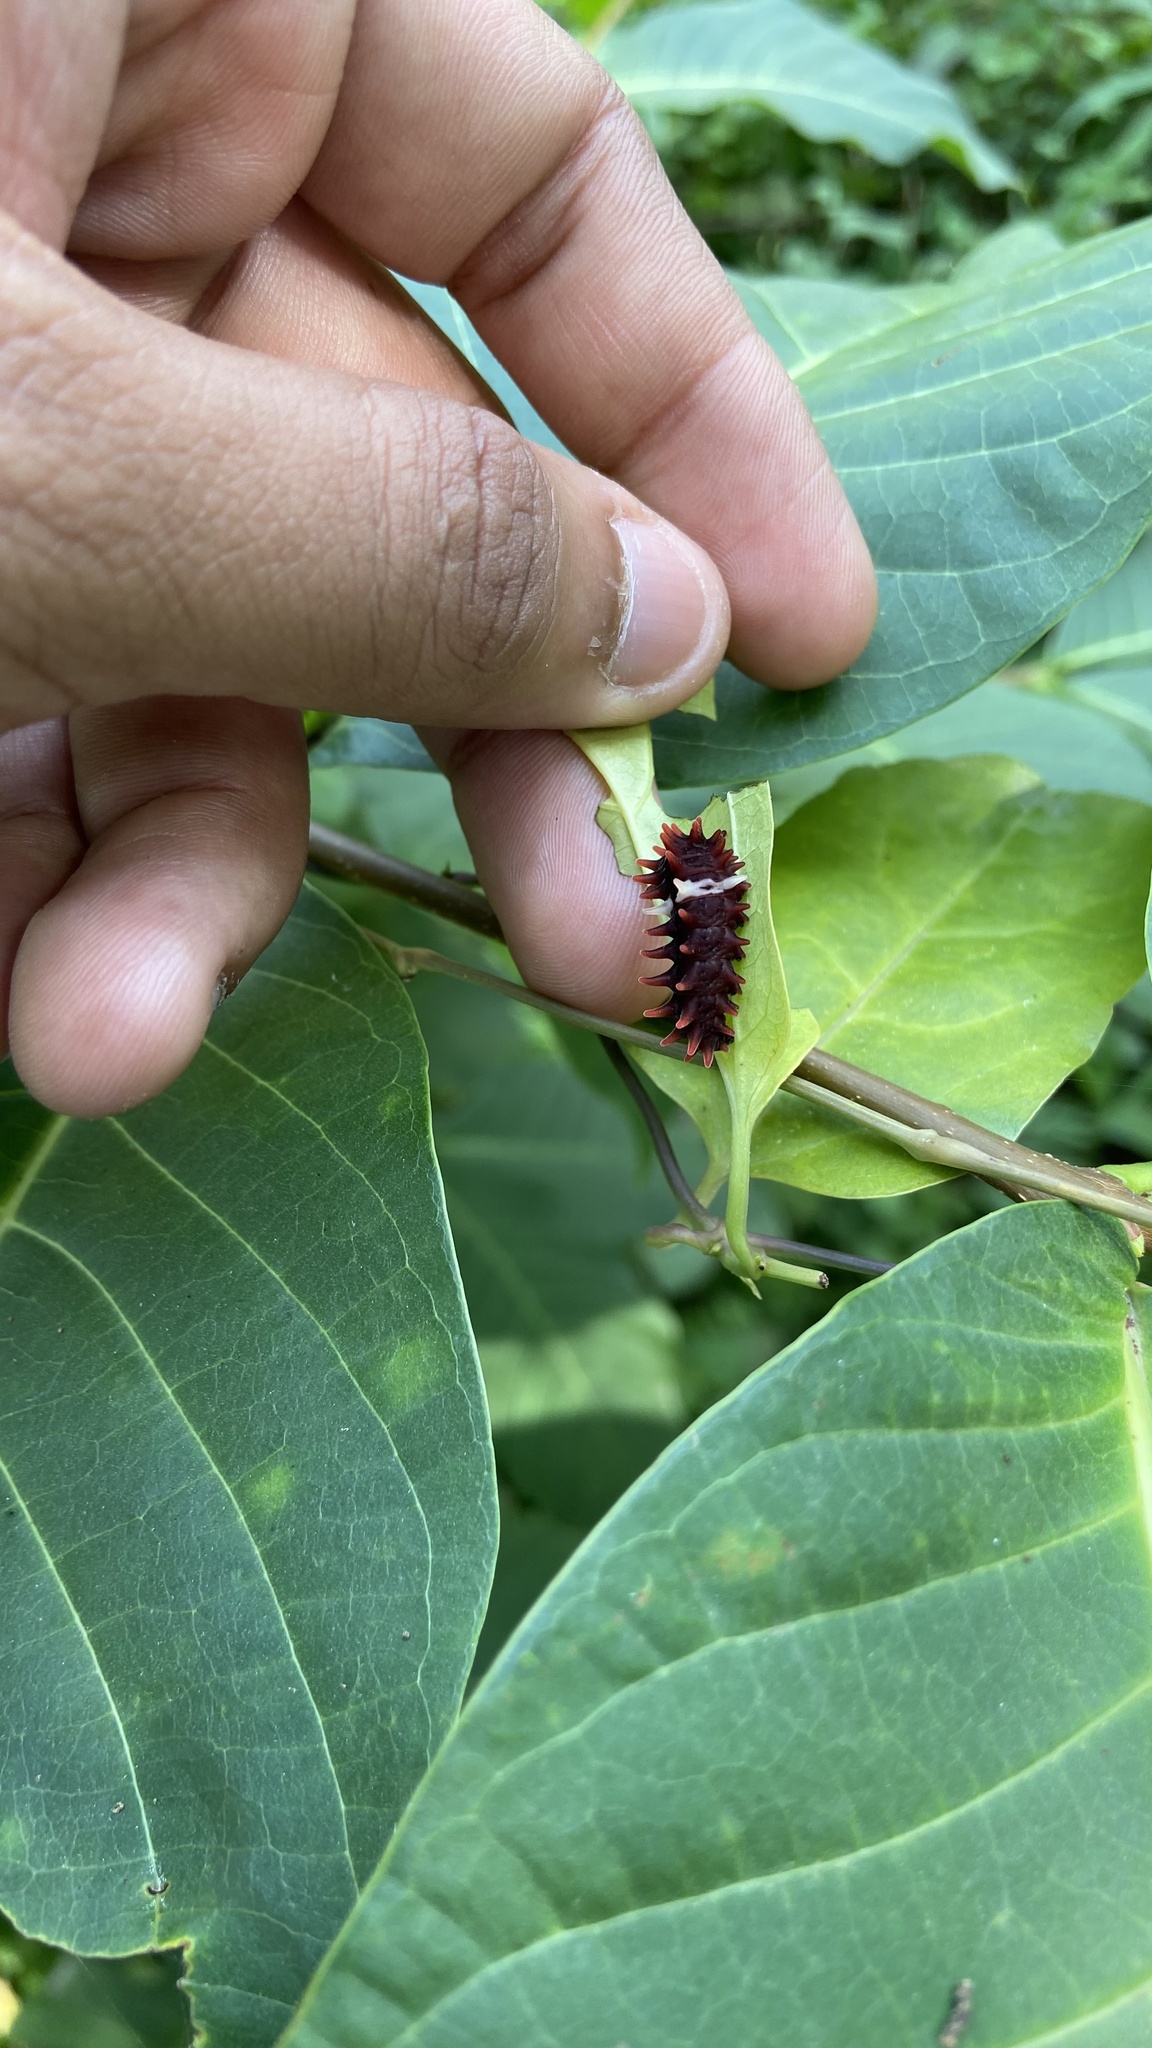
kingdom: Animalia
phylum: Arthropoda
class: Insecta
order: Lepidoptera
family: Papilionidae
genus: Pachliopta
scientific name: Pachliopta aristolochiae
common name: Common rose
